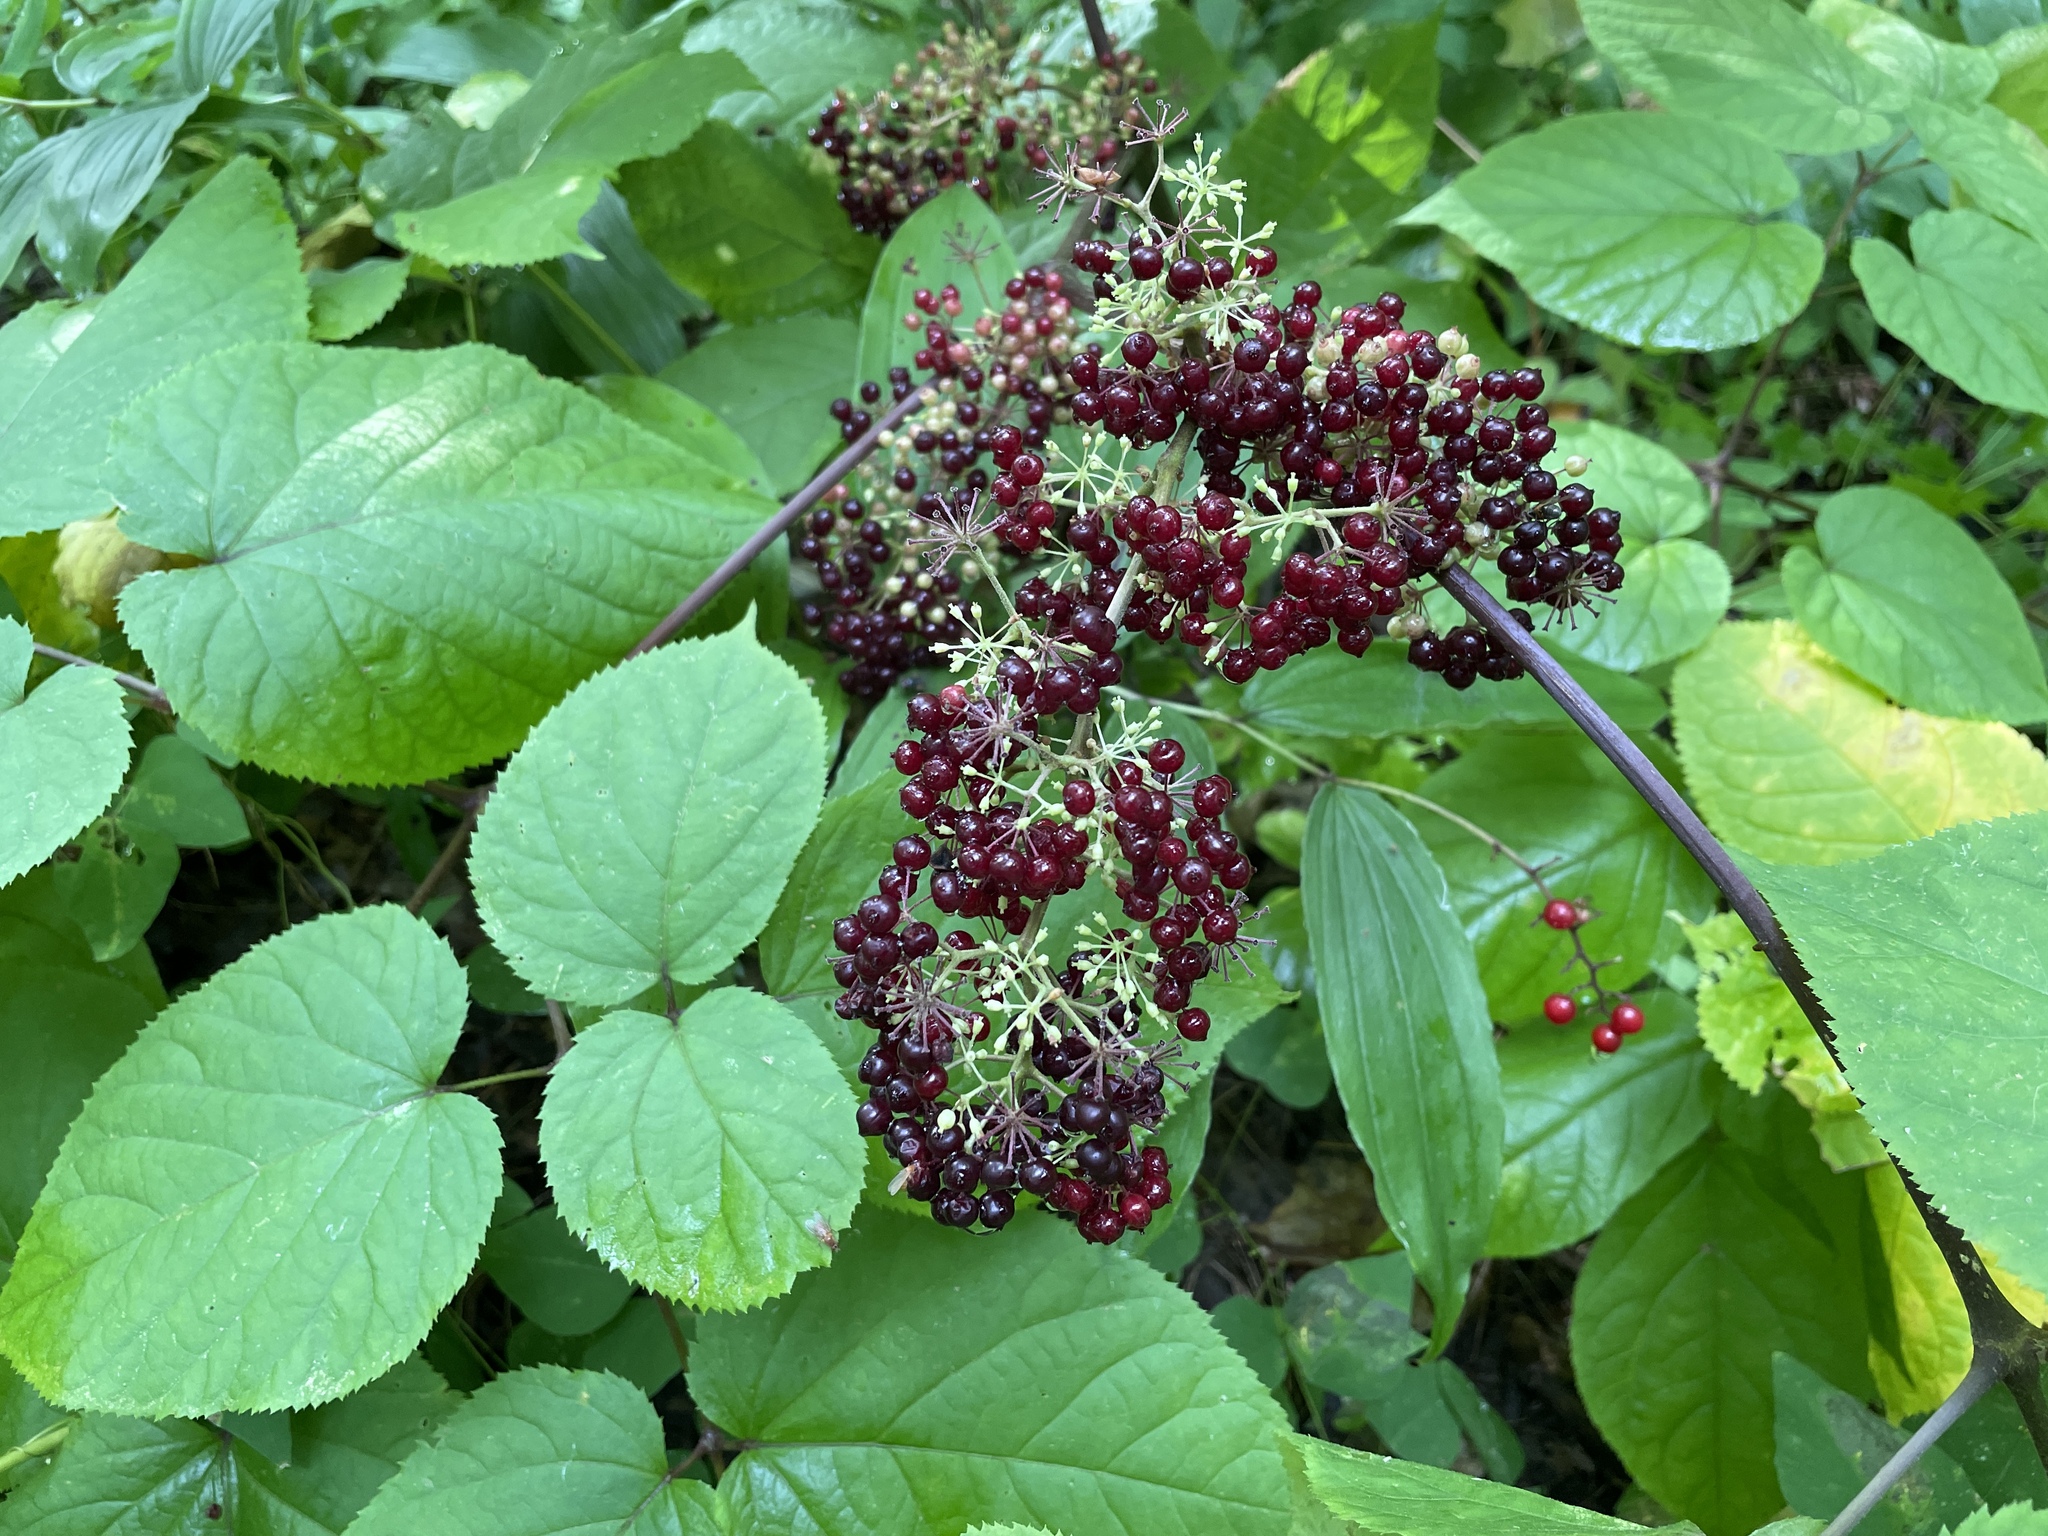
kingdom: Plantae
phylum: Tracheophyta
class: Magnoliopsida
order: Apiales
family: Araliaceae
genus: Aralia
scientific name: Aralia racemosa
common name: American-spikenard
